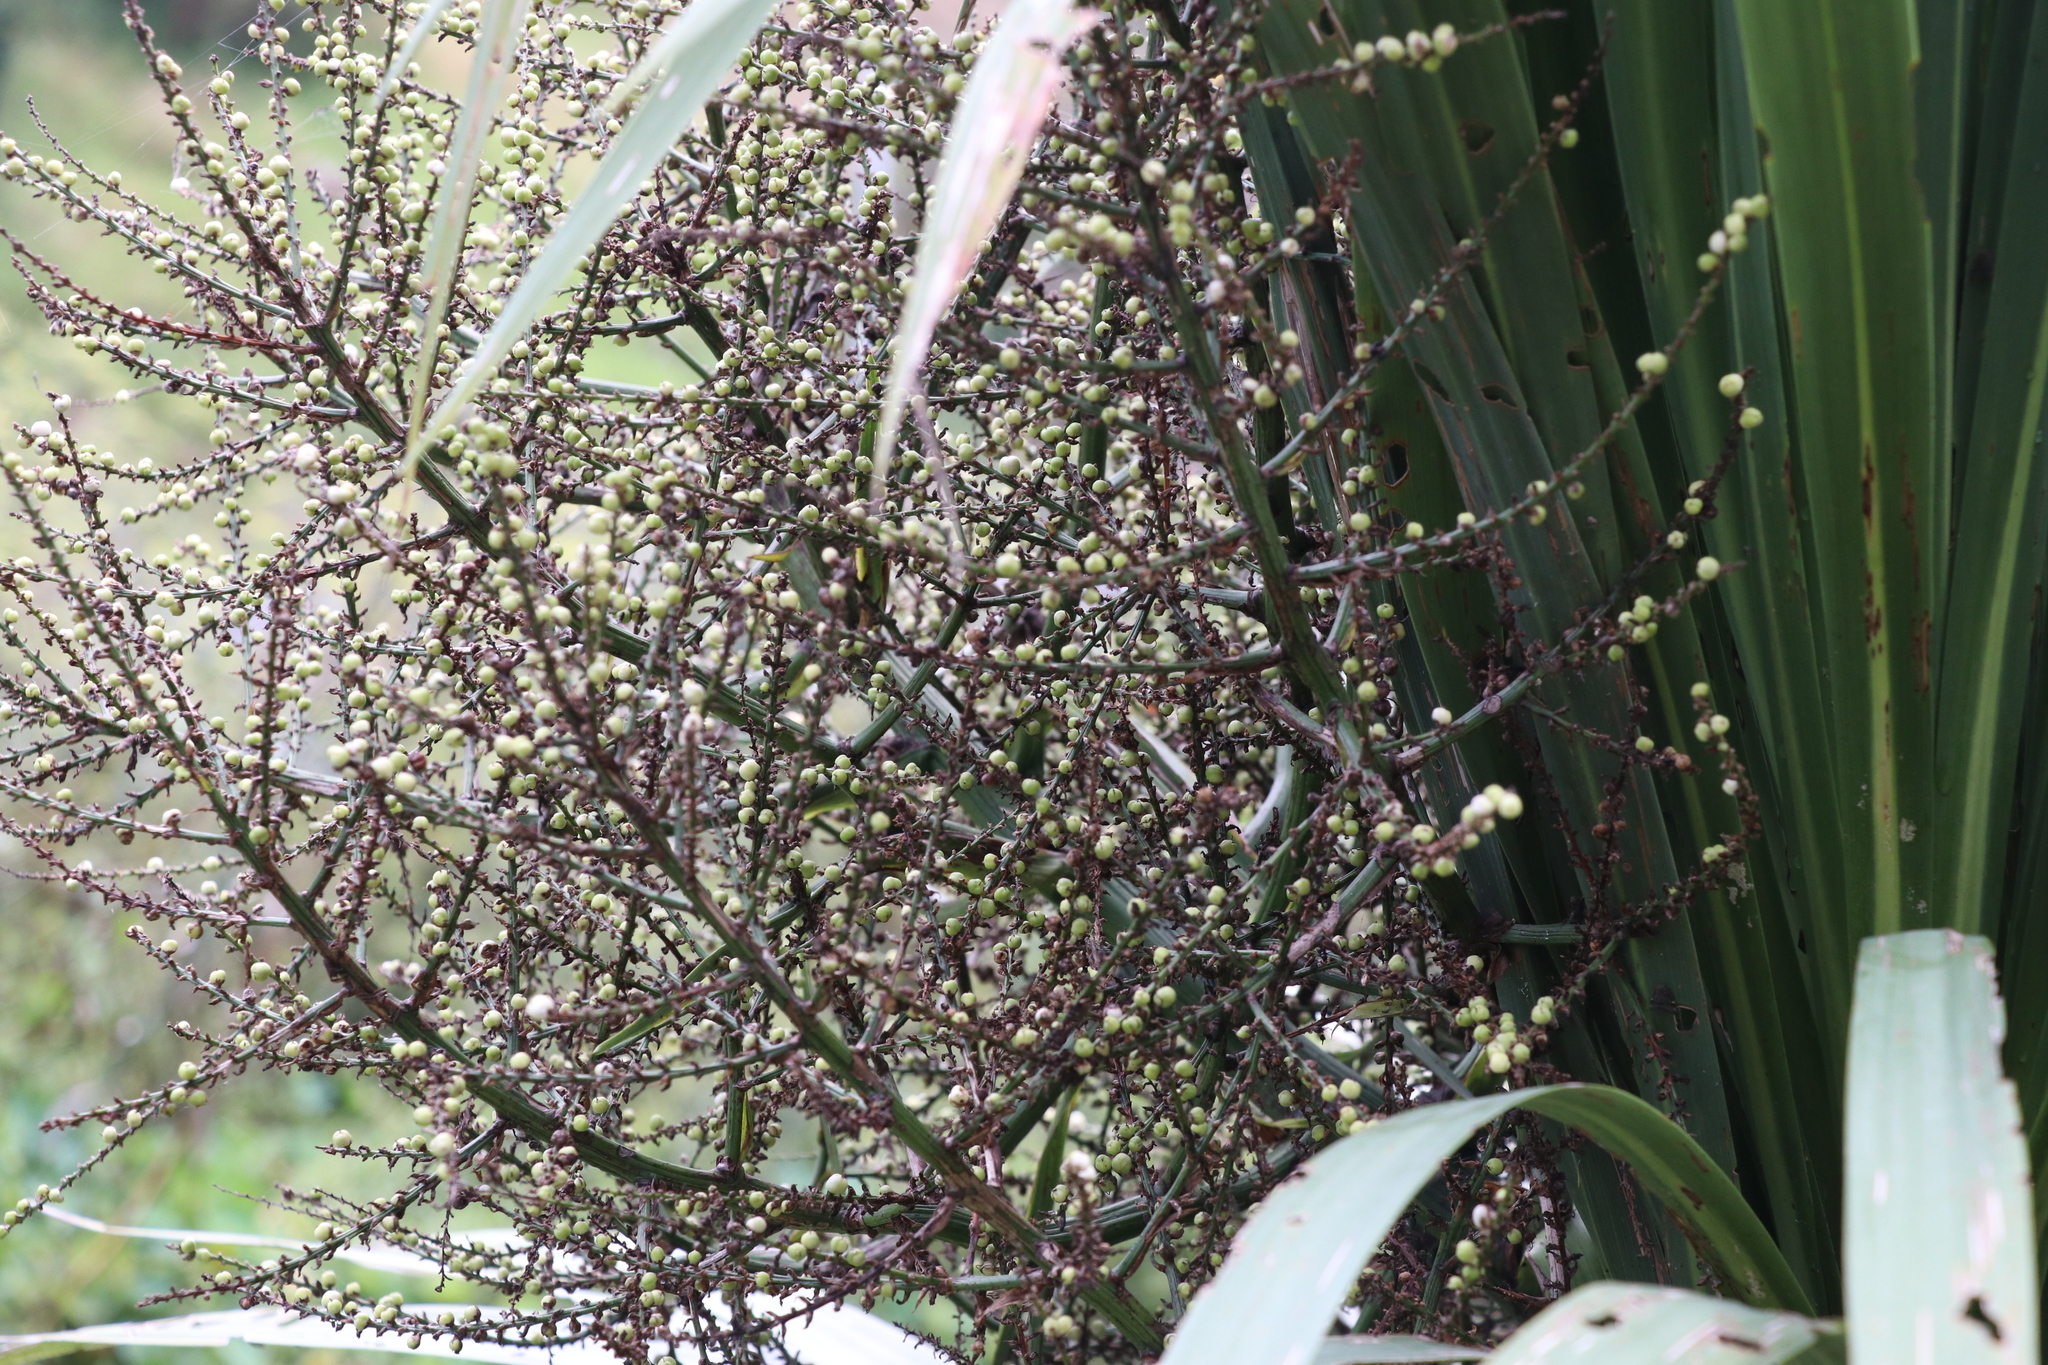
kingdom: Plantae
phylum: Tracheophyta
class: Liliopsida
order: Asparagales
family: Asparagaceae
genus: Cordyline
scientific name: Cordyline australis
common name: Cabbage-palm
